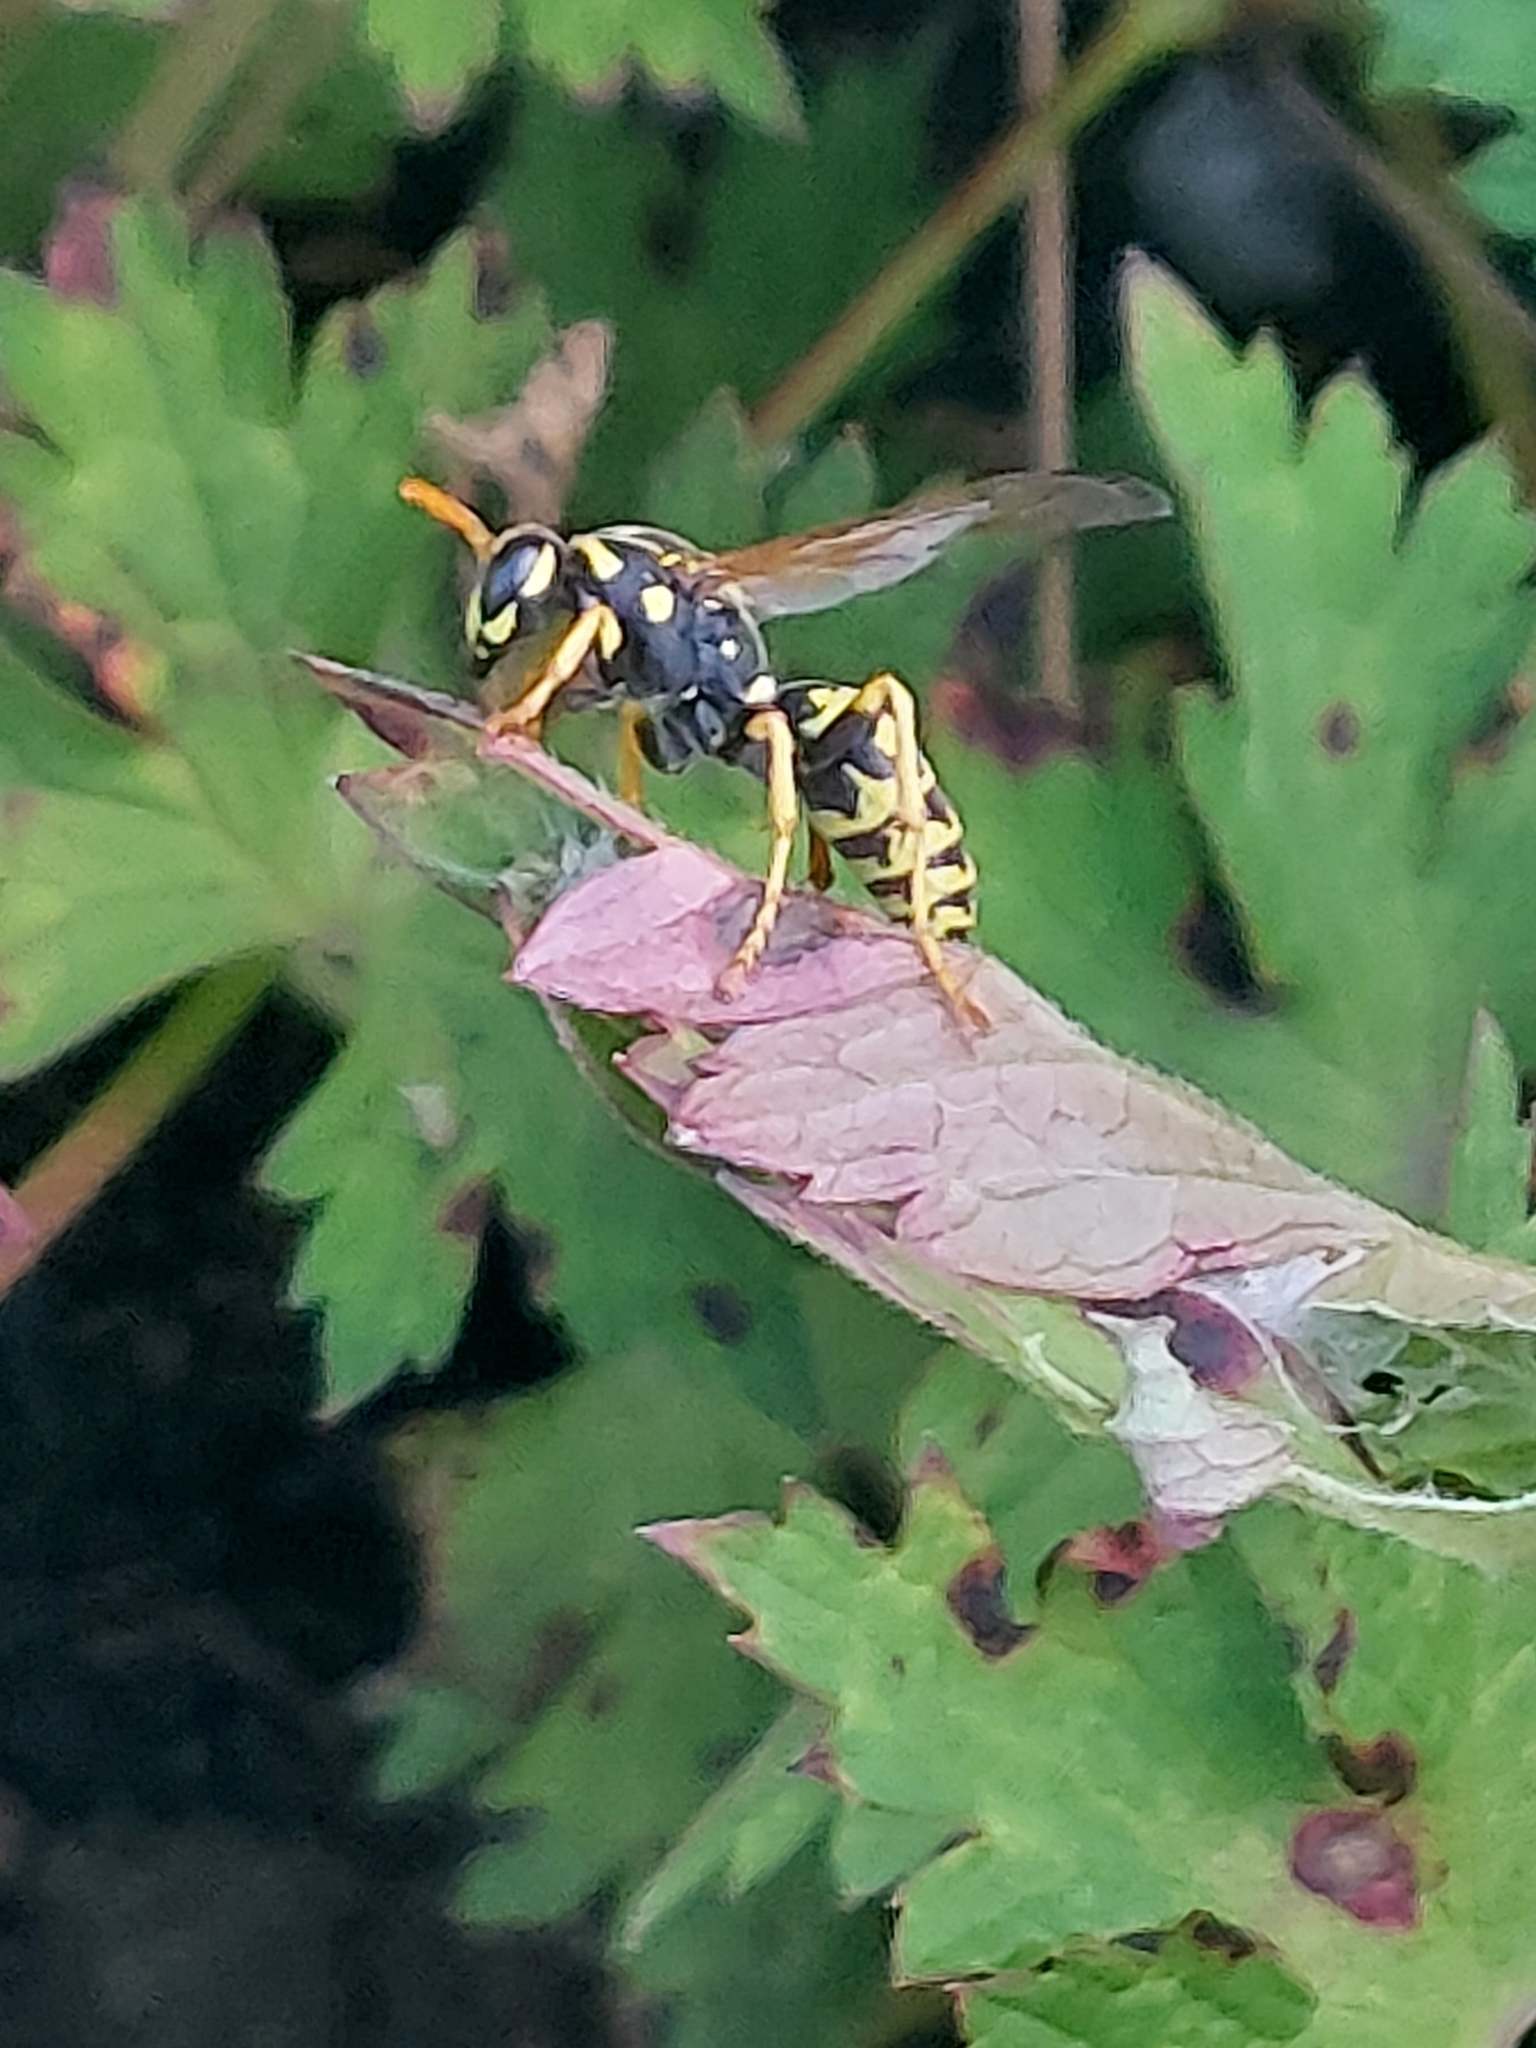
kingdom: Animalia
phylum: Arthropoda
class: Insecta
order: Hymenoptera
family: Eumenidae
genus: Polistes
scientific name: Polistes dominula
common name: Paper wasp
